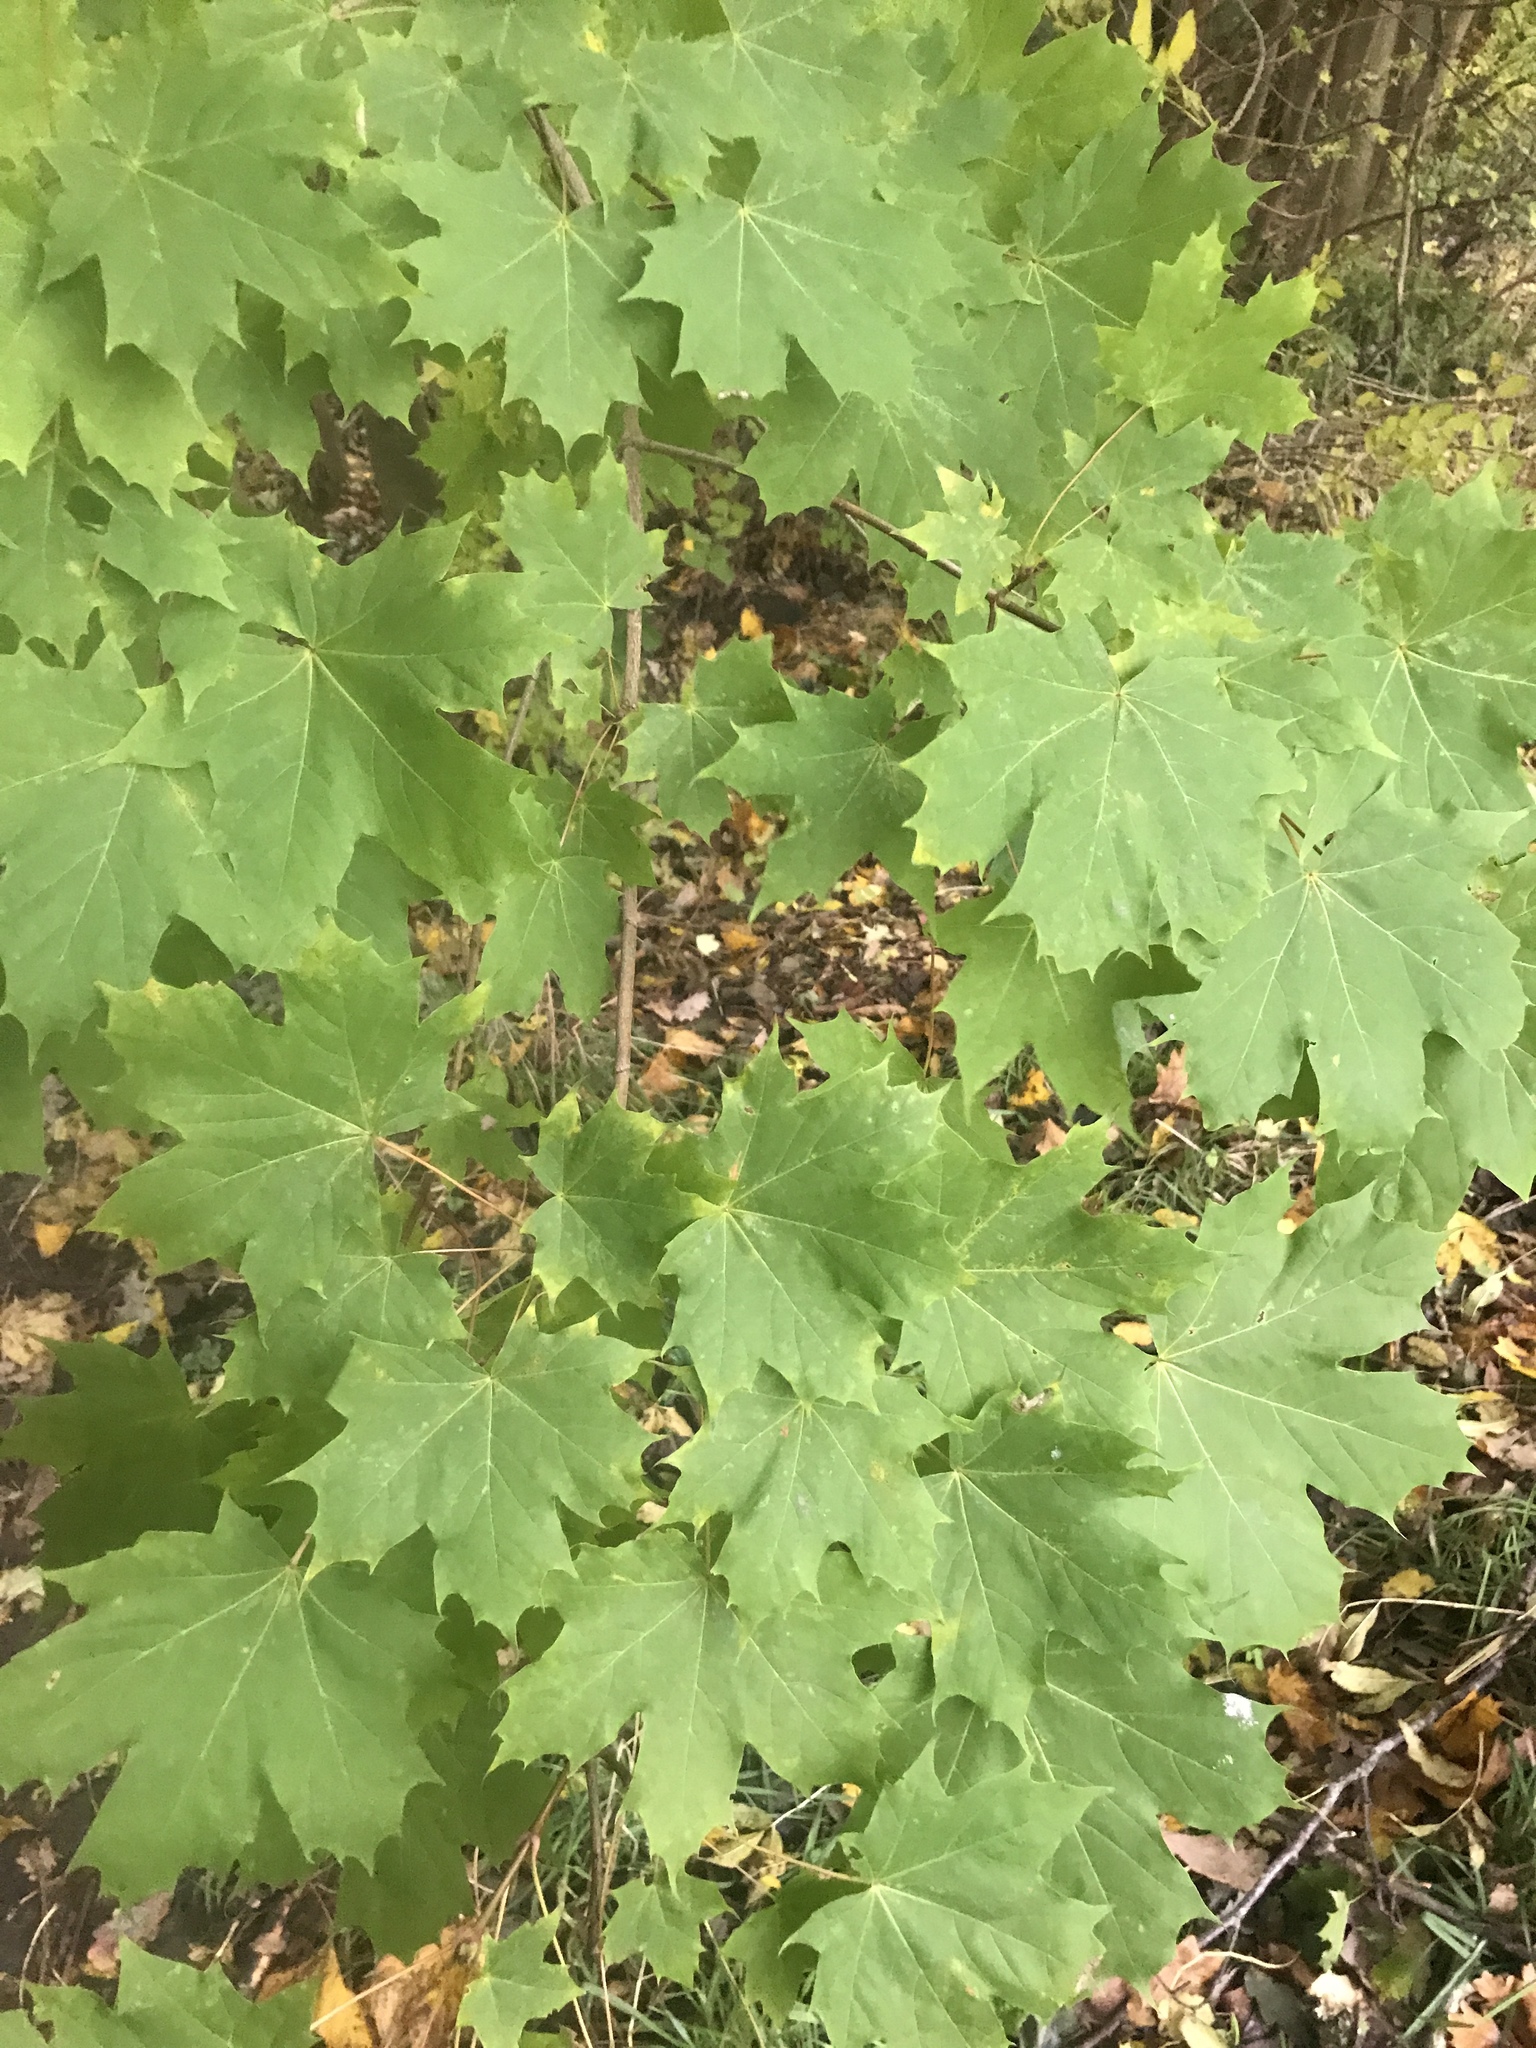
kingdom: Plantae
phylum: Tracheophyta
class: Magnoliopsida
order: Sapindales
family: Sapindaceae
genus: Acer
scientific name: Acer platanoides
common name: Norway maple
